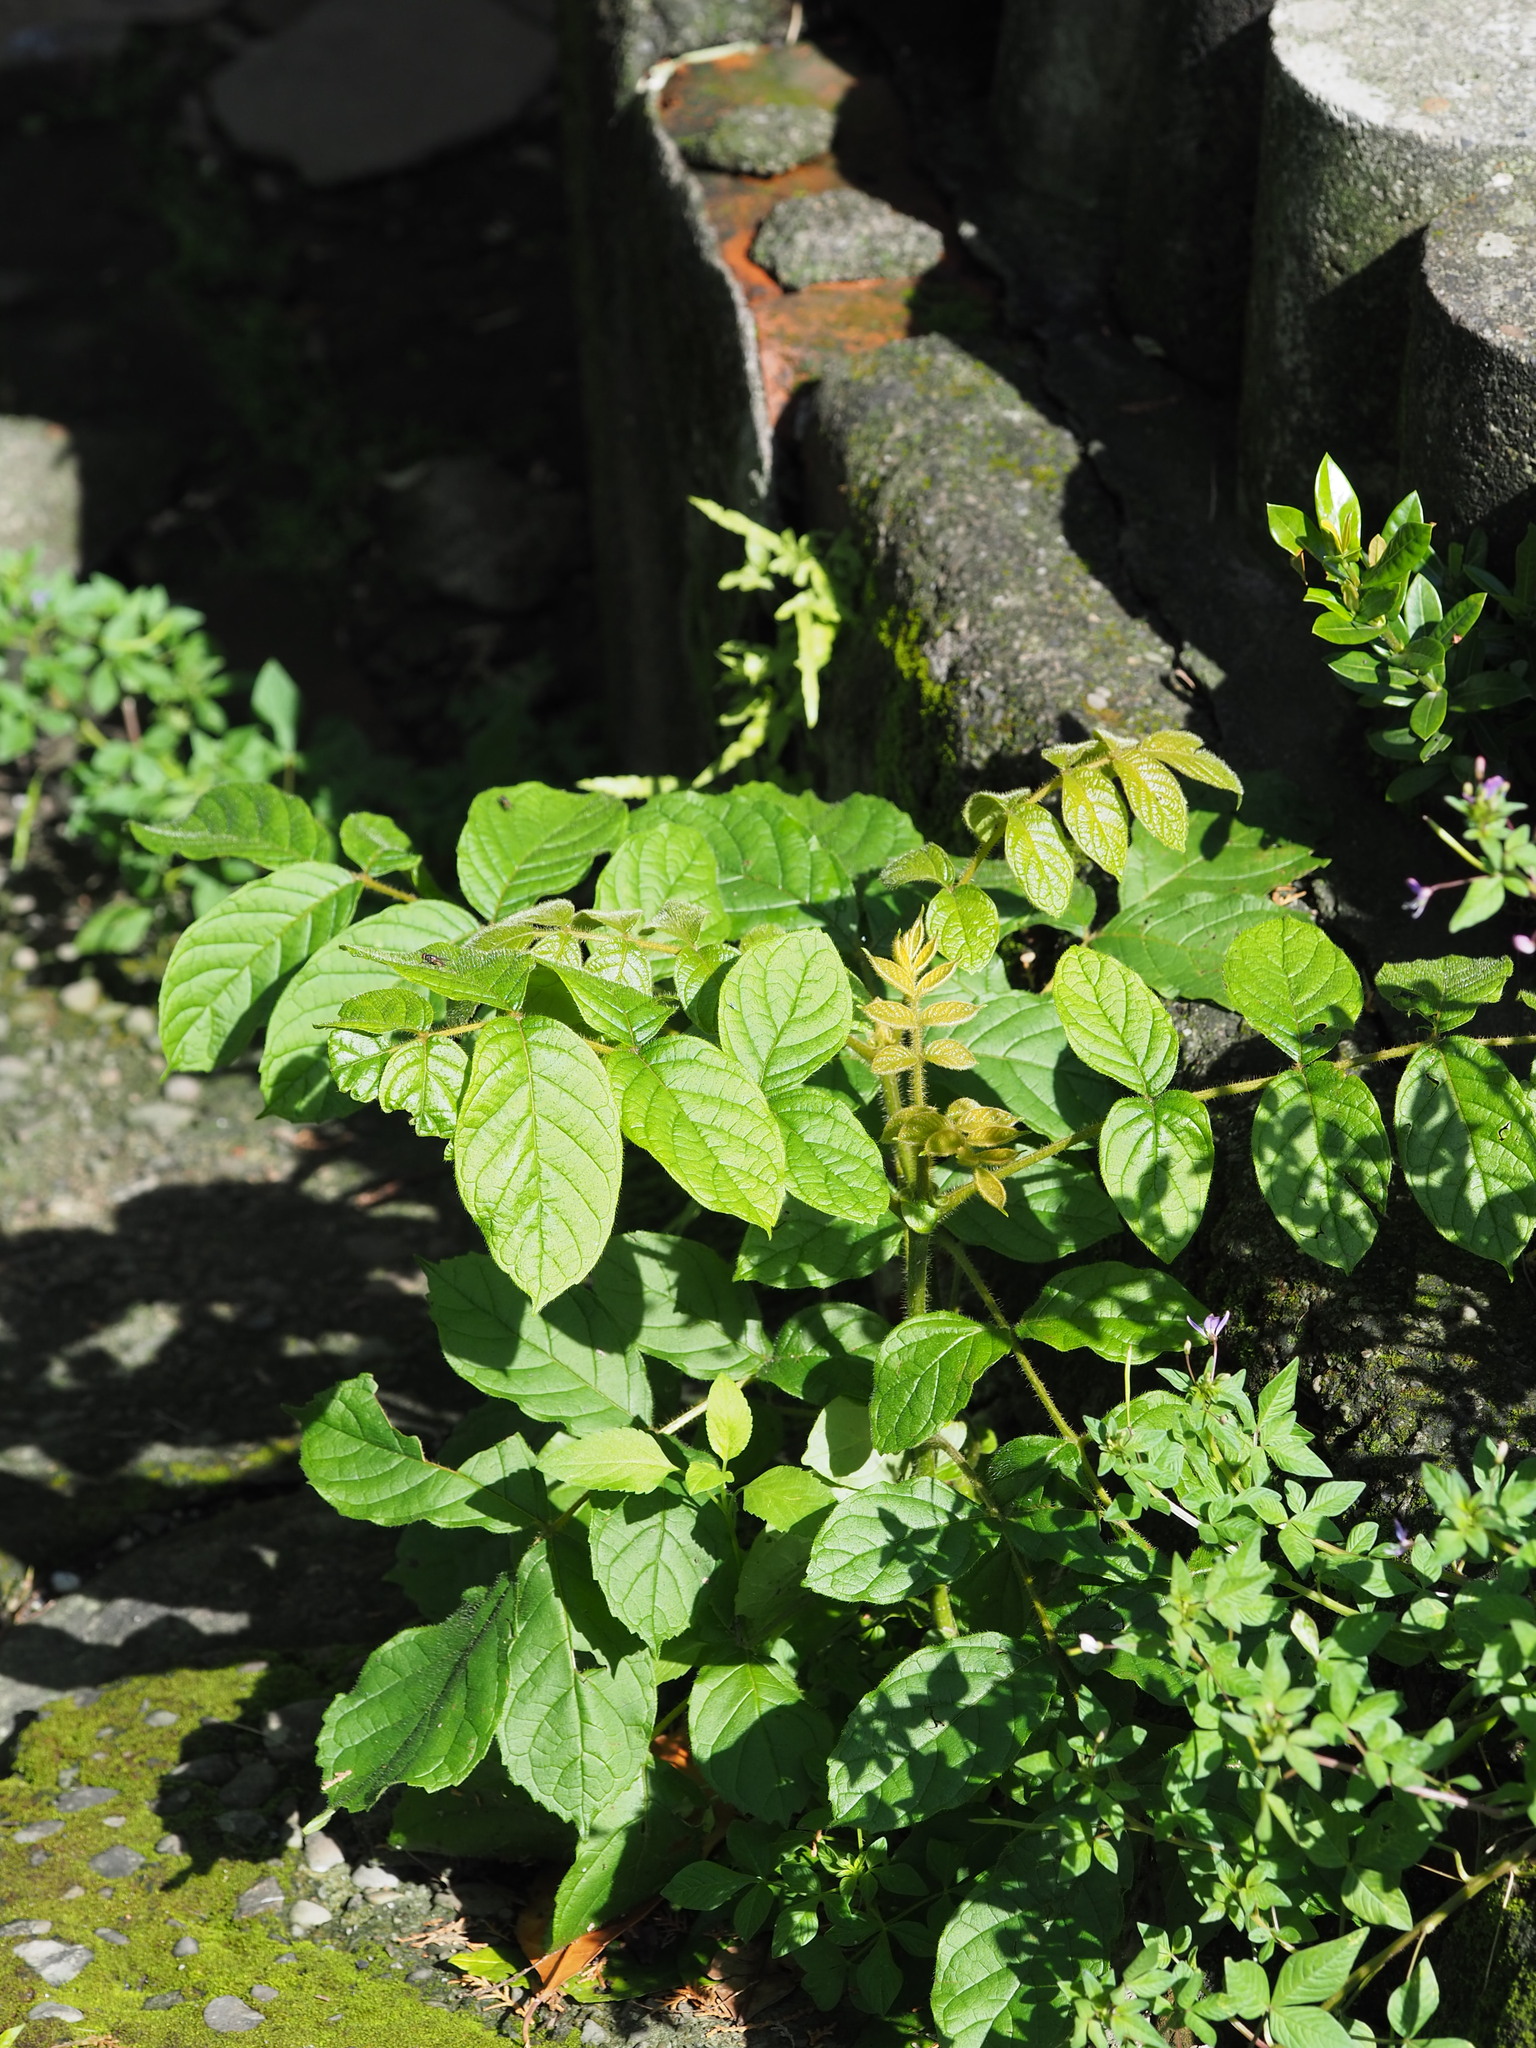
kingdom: Plantae
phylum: Tracheophyta
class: Magnoliopsida
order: Lamiales
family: Bignoniaceae
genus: Spathodea
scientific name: Spathodea campanulata
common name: African tuliptree
